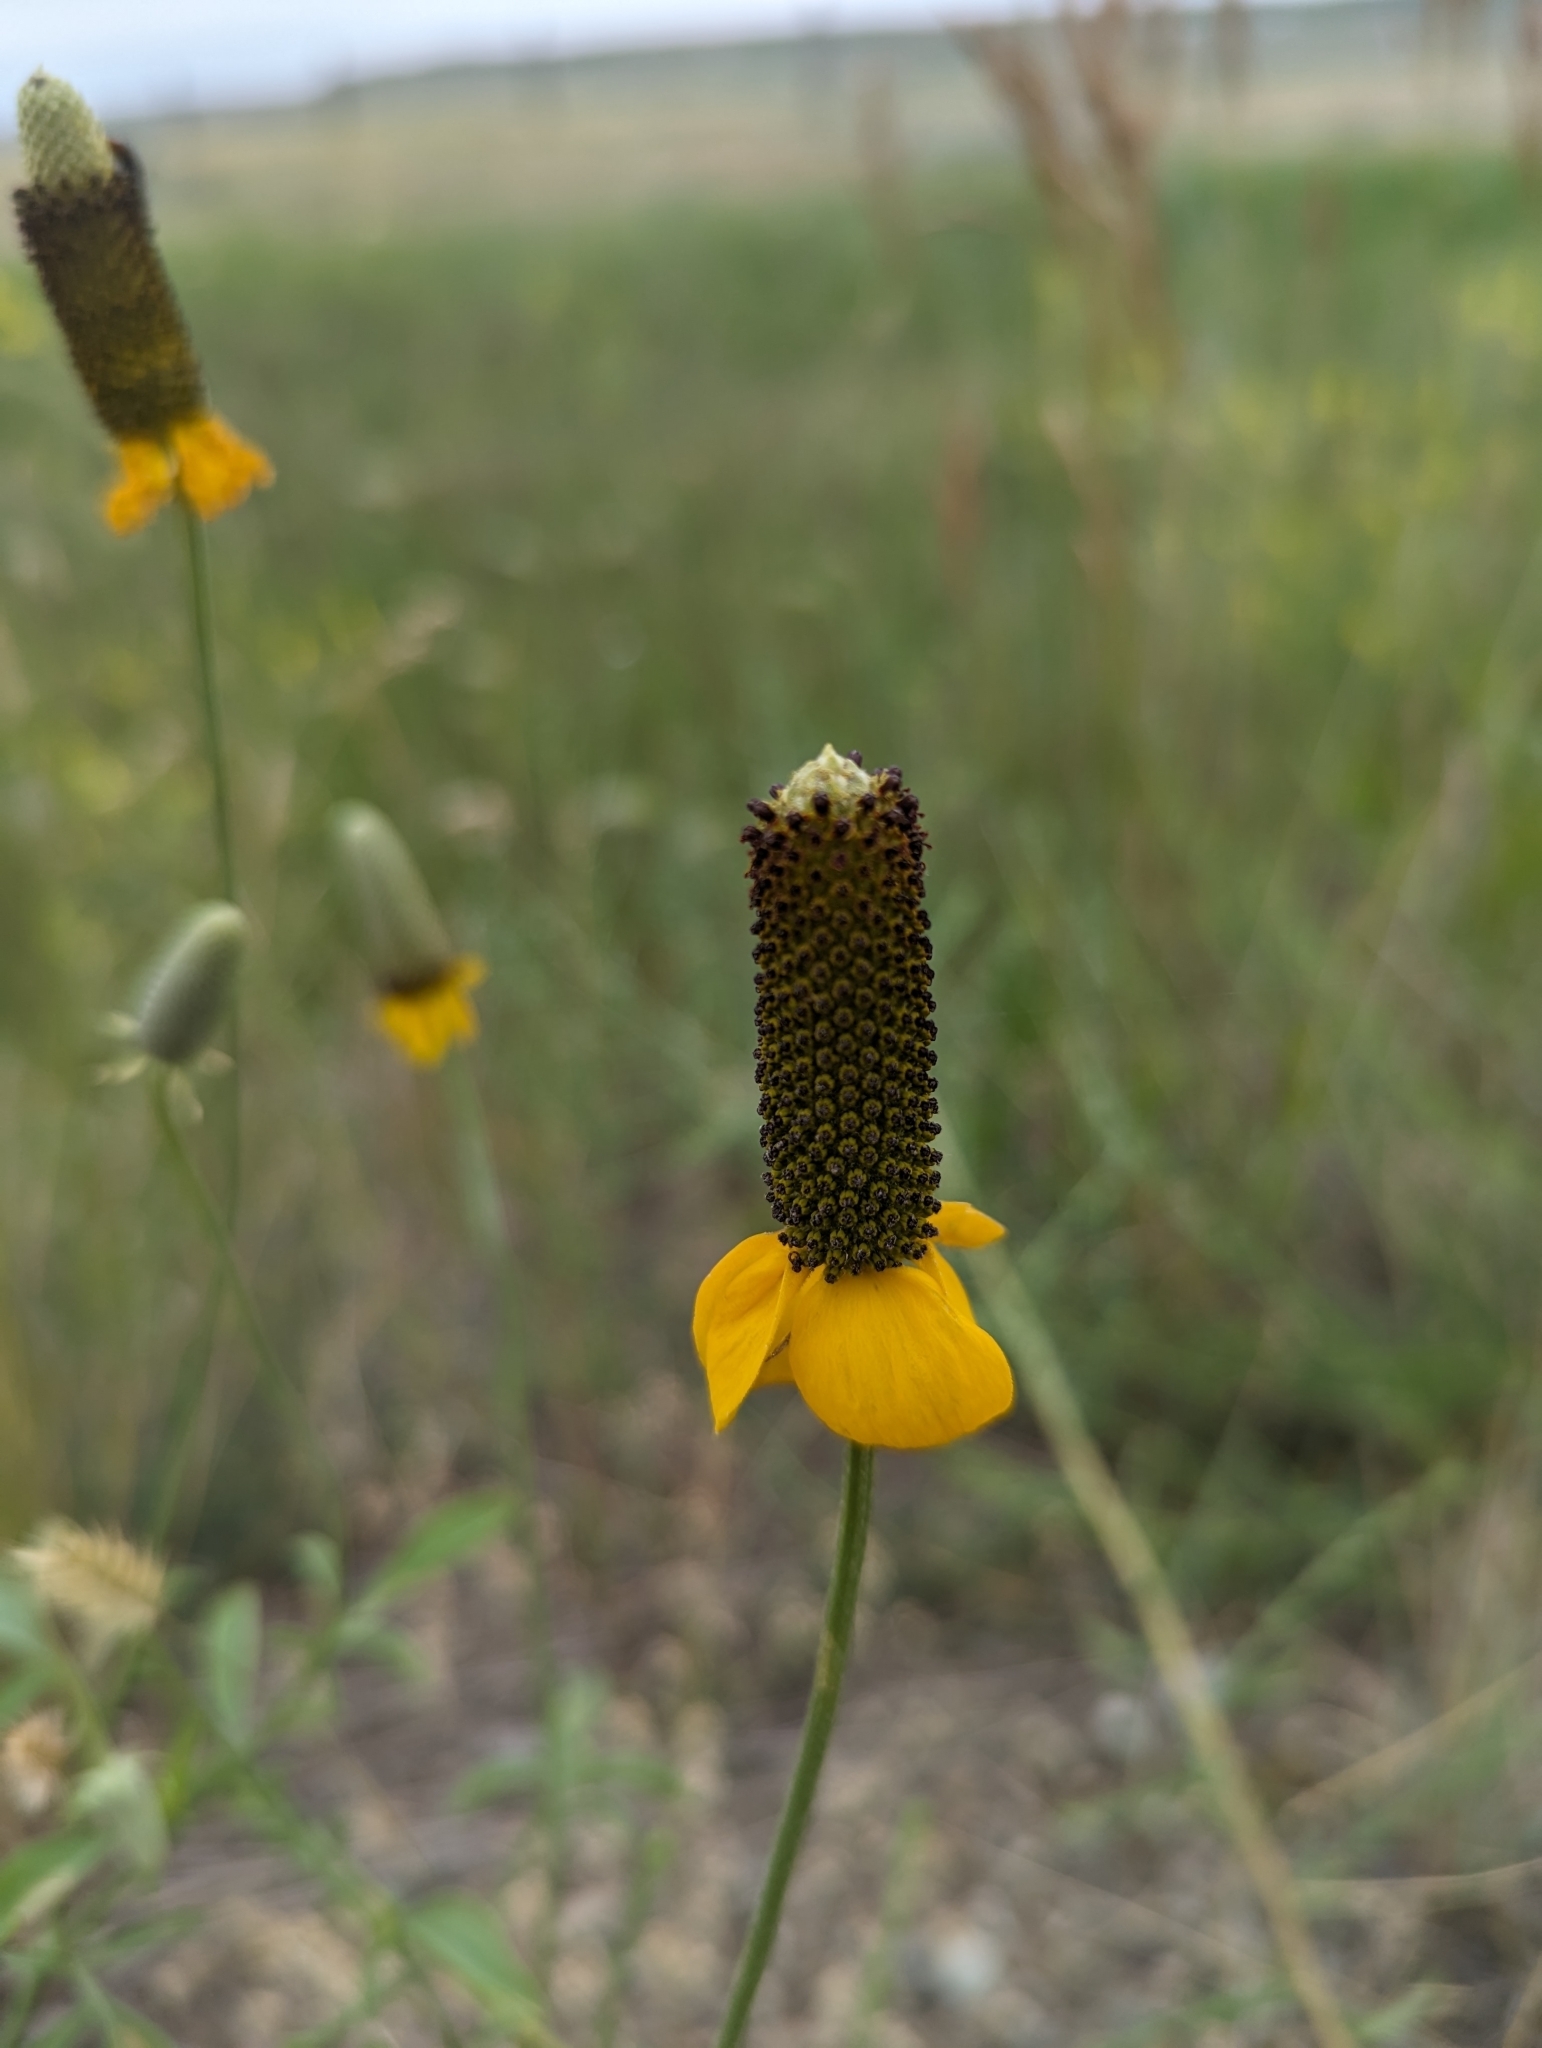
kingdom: Plantae
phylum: Tracheophyta
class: Magnoliopsida
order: Asterales
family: Asteraceae
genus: Ratibida
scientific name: Ratibida columnifera
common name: Prairie coneflower
